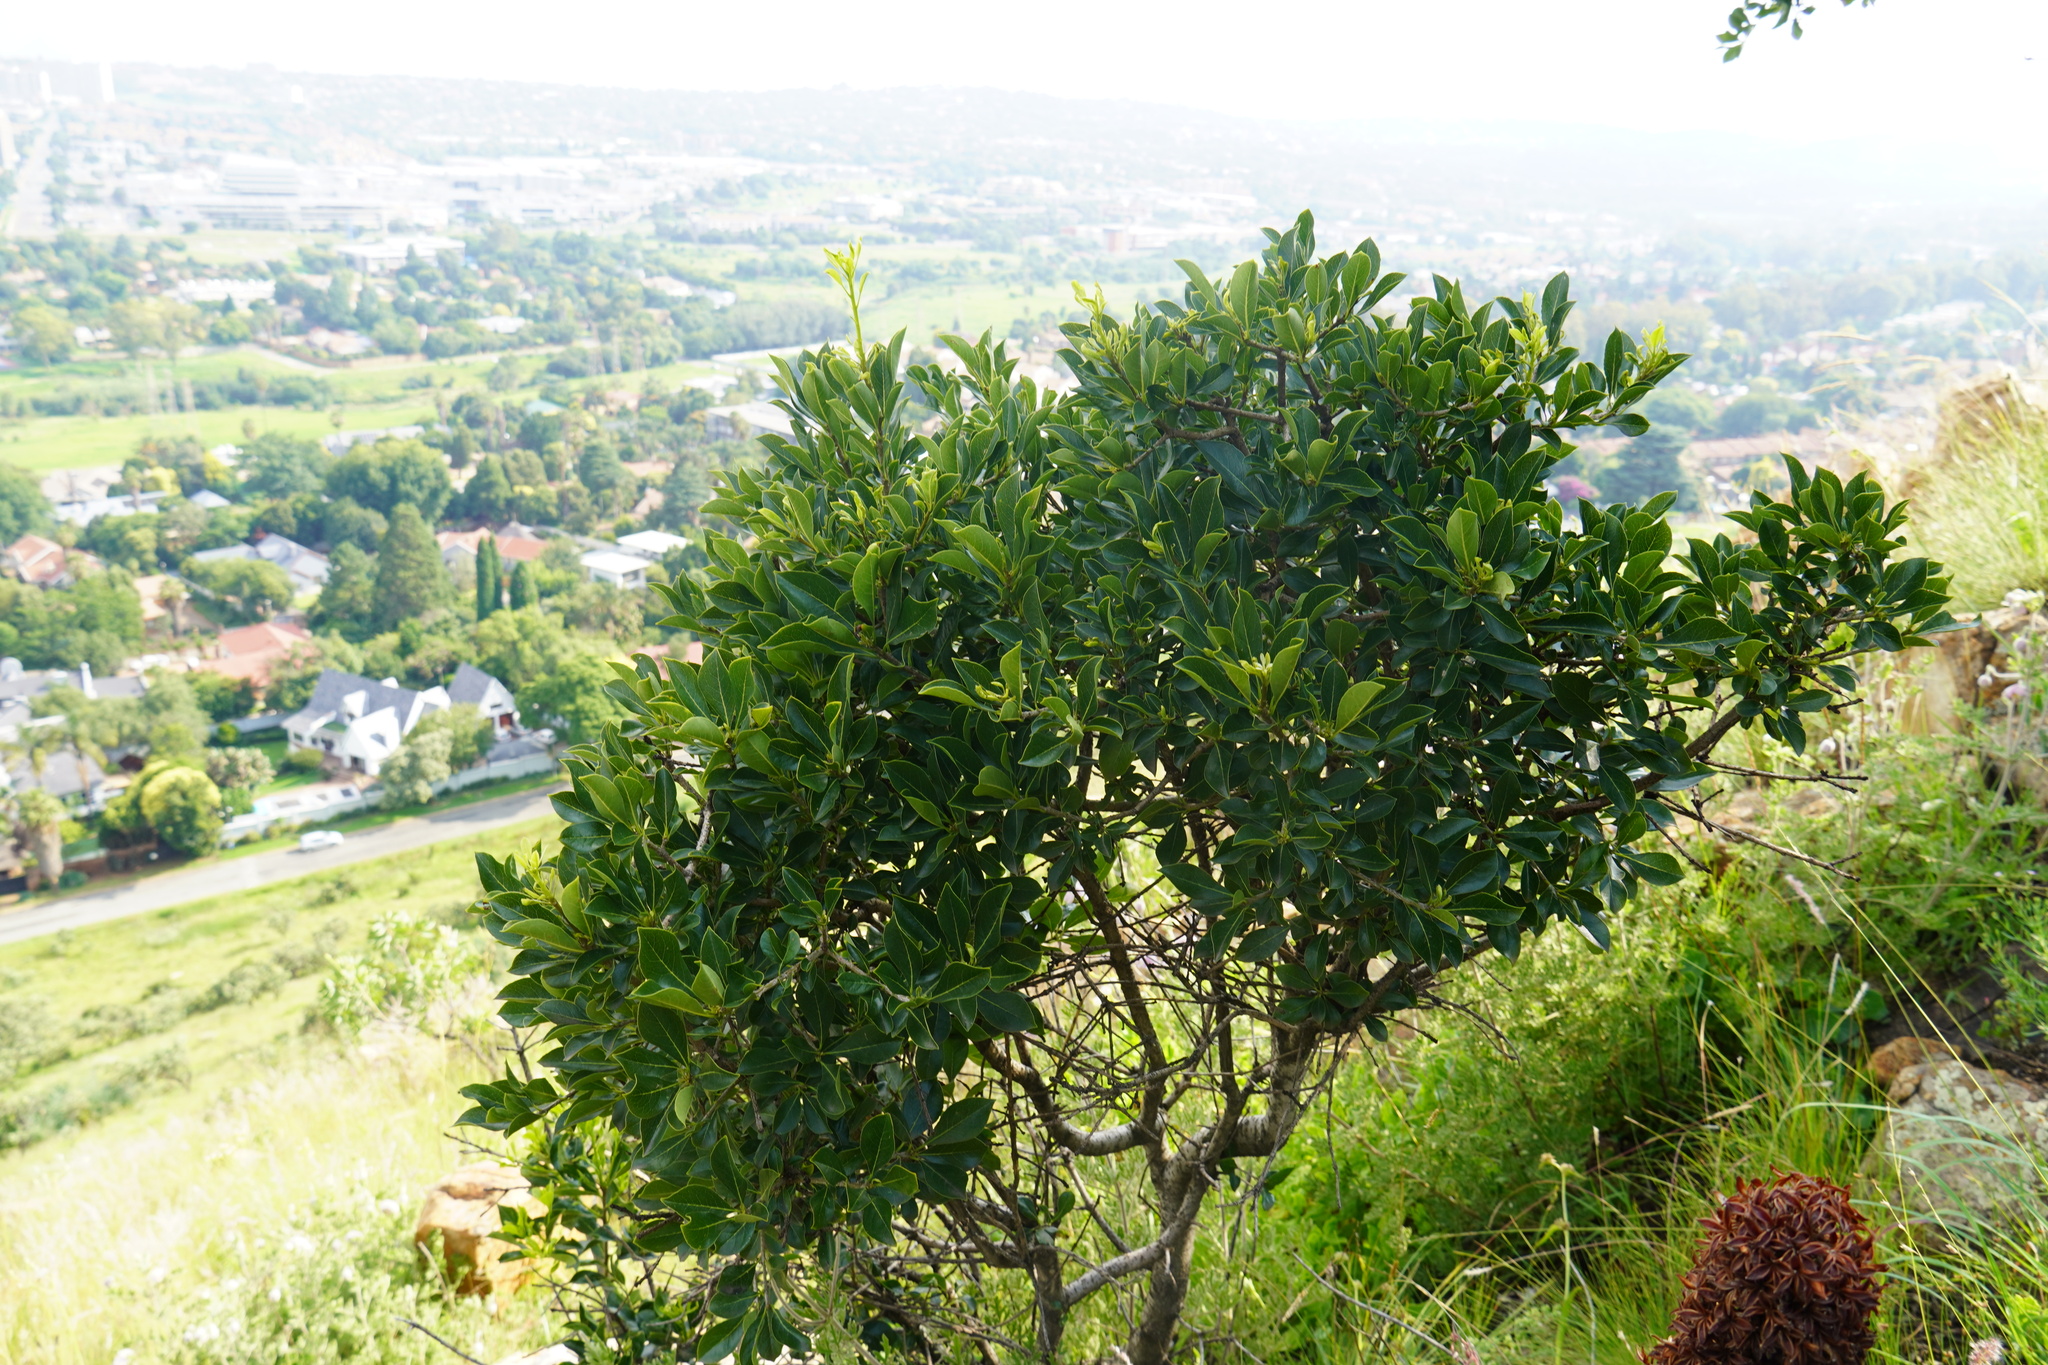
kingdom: Plantae
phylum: Tracheophyta
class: Magnoliopsida
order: Apiales
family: Pittosporaceae
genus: Pittosporum
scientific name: Pittosporum viridiflorum
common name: Cape cheesewood
